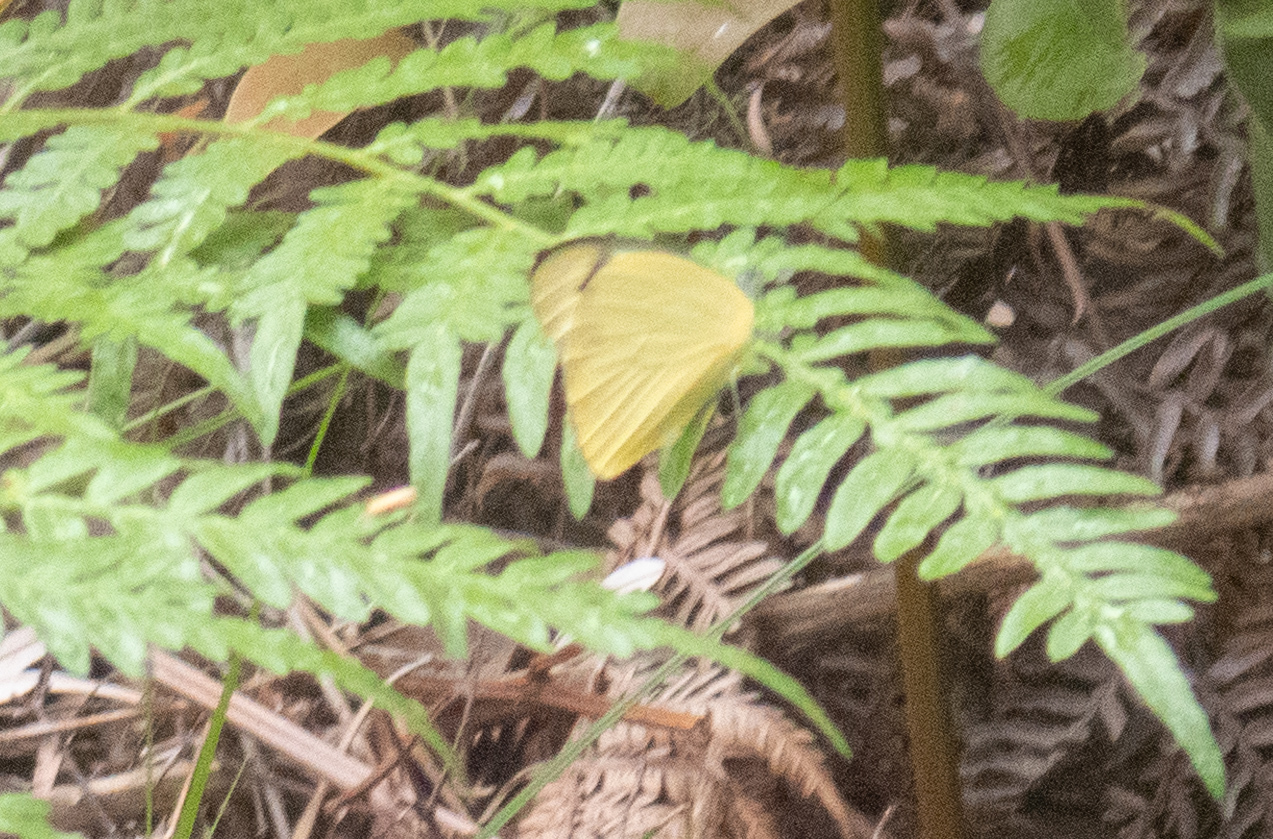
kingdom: Animalia
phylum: Arthropoda
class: Insecta
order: Lepidoptera
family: Pieridae
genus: Appias
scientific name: Appias paulina
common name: Ceylon lesser albatross
